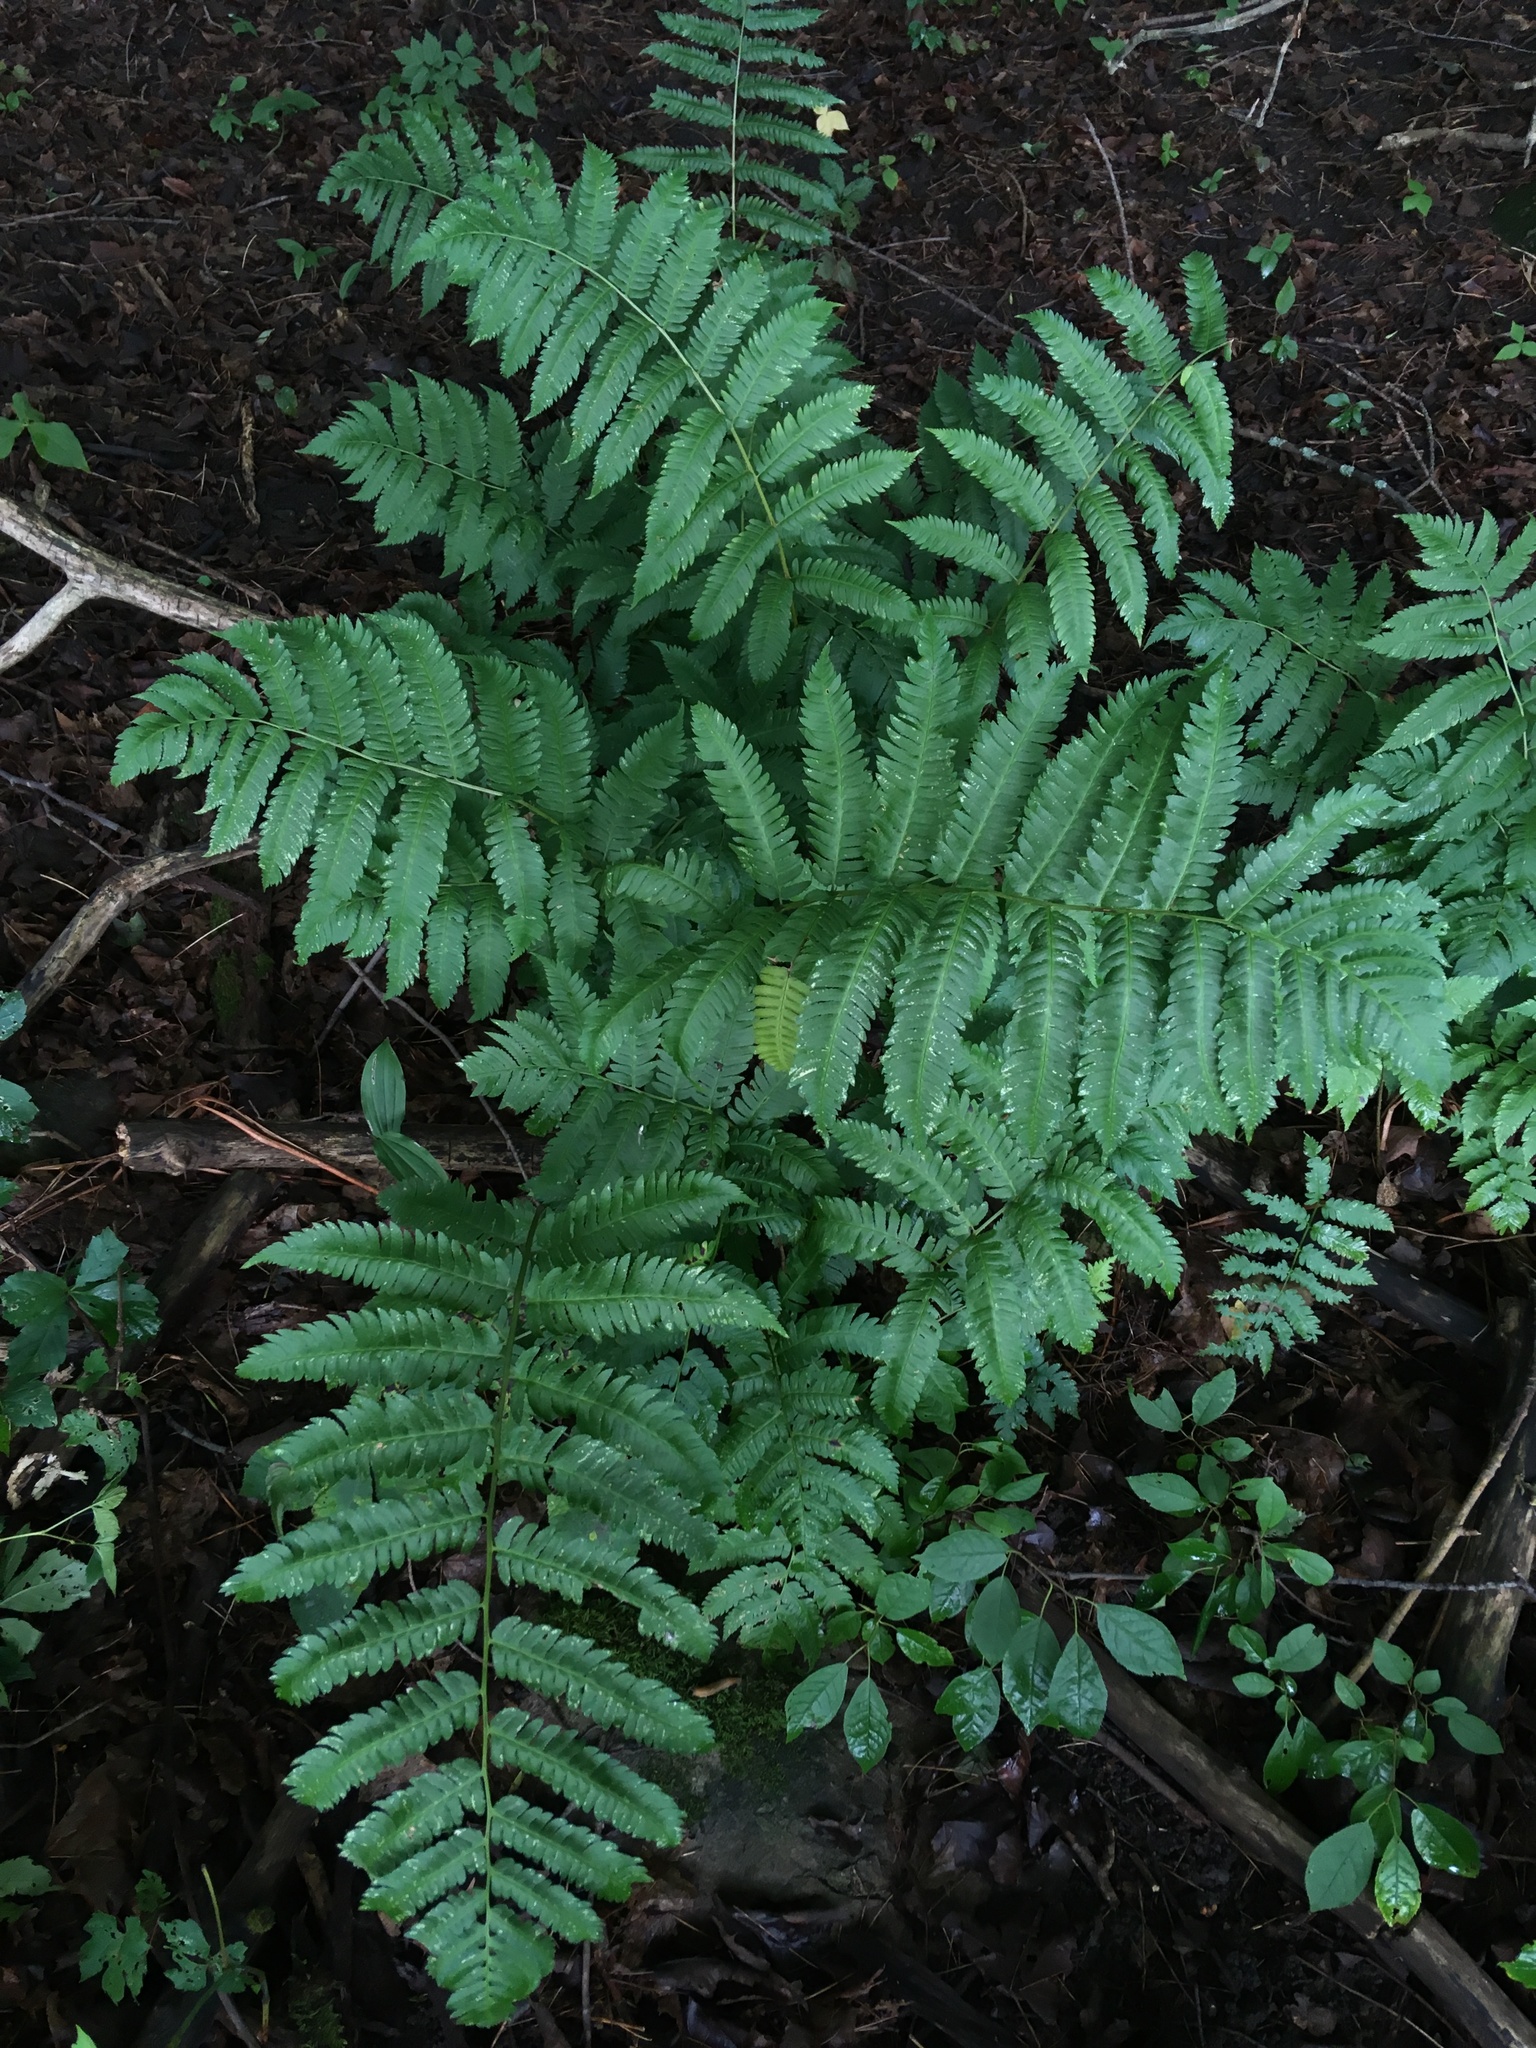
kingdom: Plantae
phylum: Tracheophyta
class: Polypodiopsida
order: Polypodiales
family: Dryopteridaceae
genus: Dryopteris
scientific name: Dryopteris goldieana
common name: Goldie's fern
